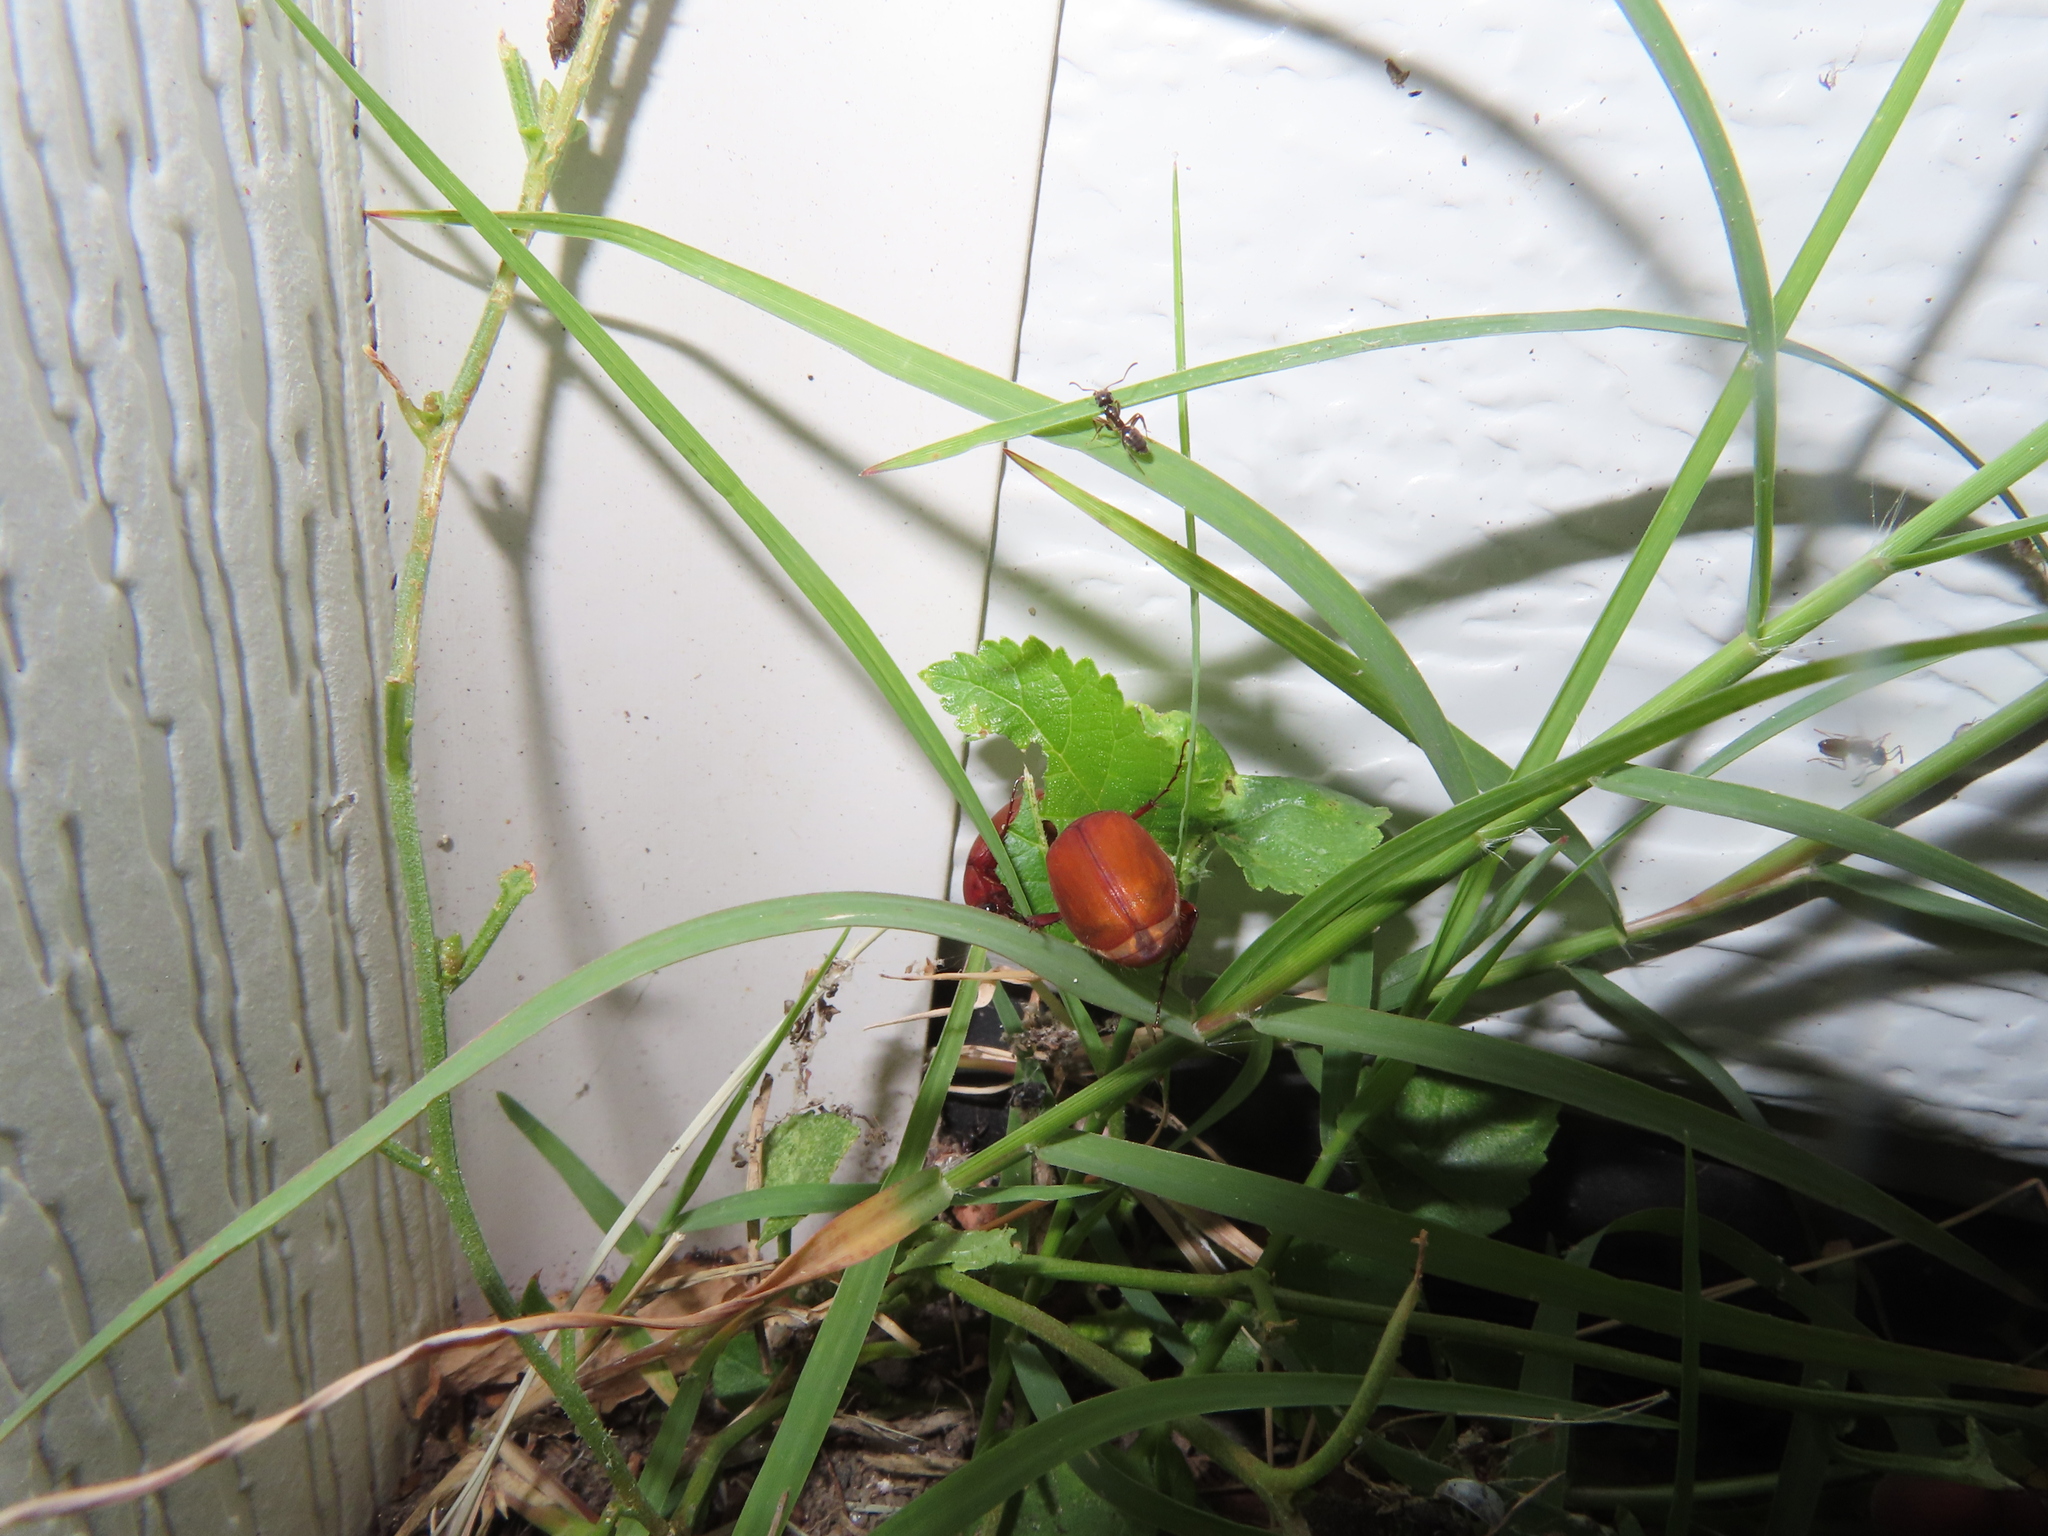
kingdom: Animalia
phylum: Arthropoda
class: Insecta
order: Coleoptera
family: Scarabaeidae
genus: Maladera
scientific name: Maladera formosae
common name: Asiatic garden beetle
